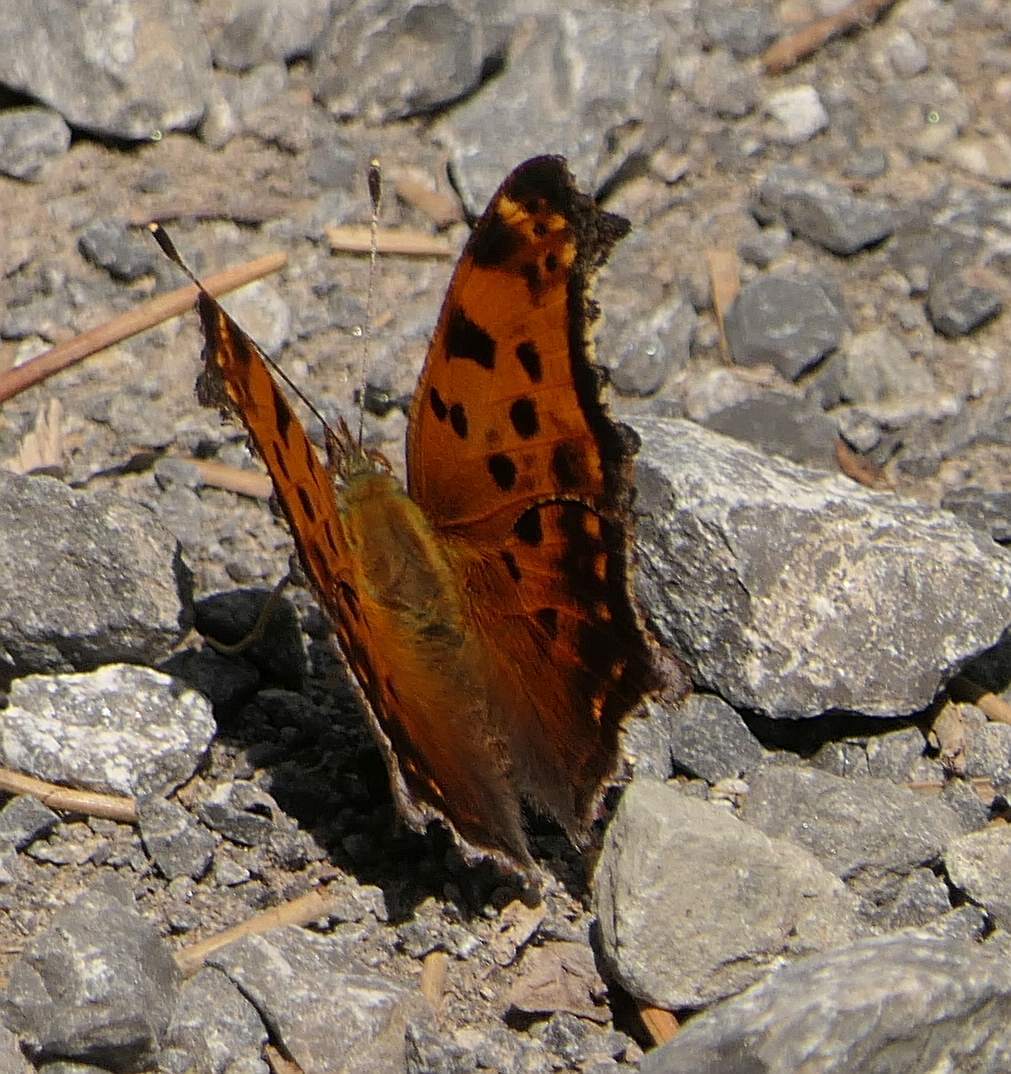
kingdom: Animalia
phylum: Arthropoda
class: Insecta
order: Lepidoptera
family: Nymphalidae
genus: Polygonia
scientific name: Polygonia comma
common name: Eastern comma
